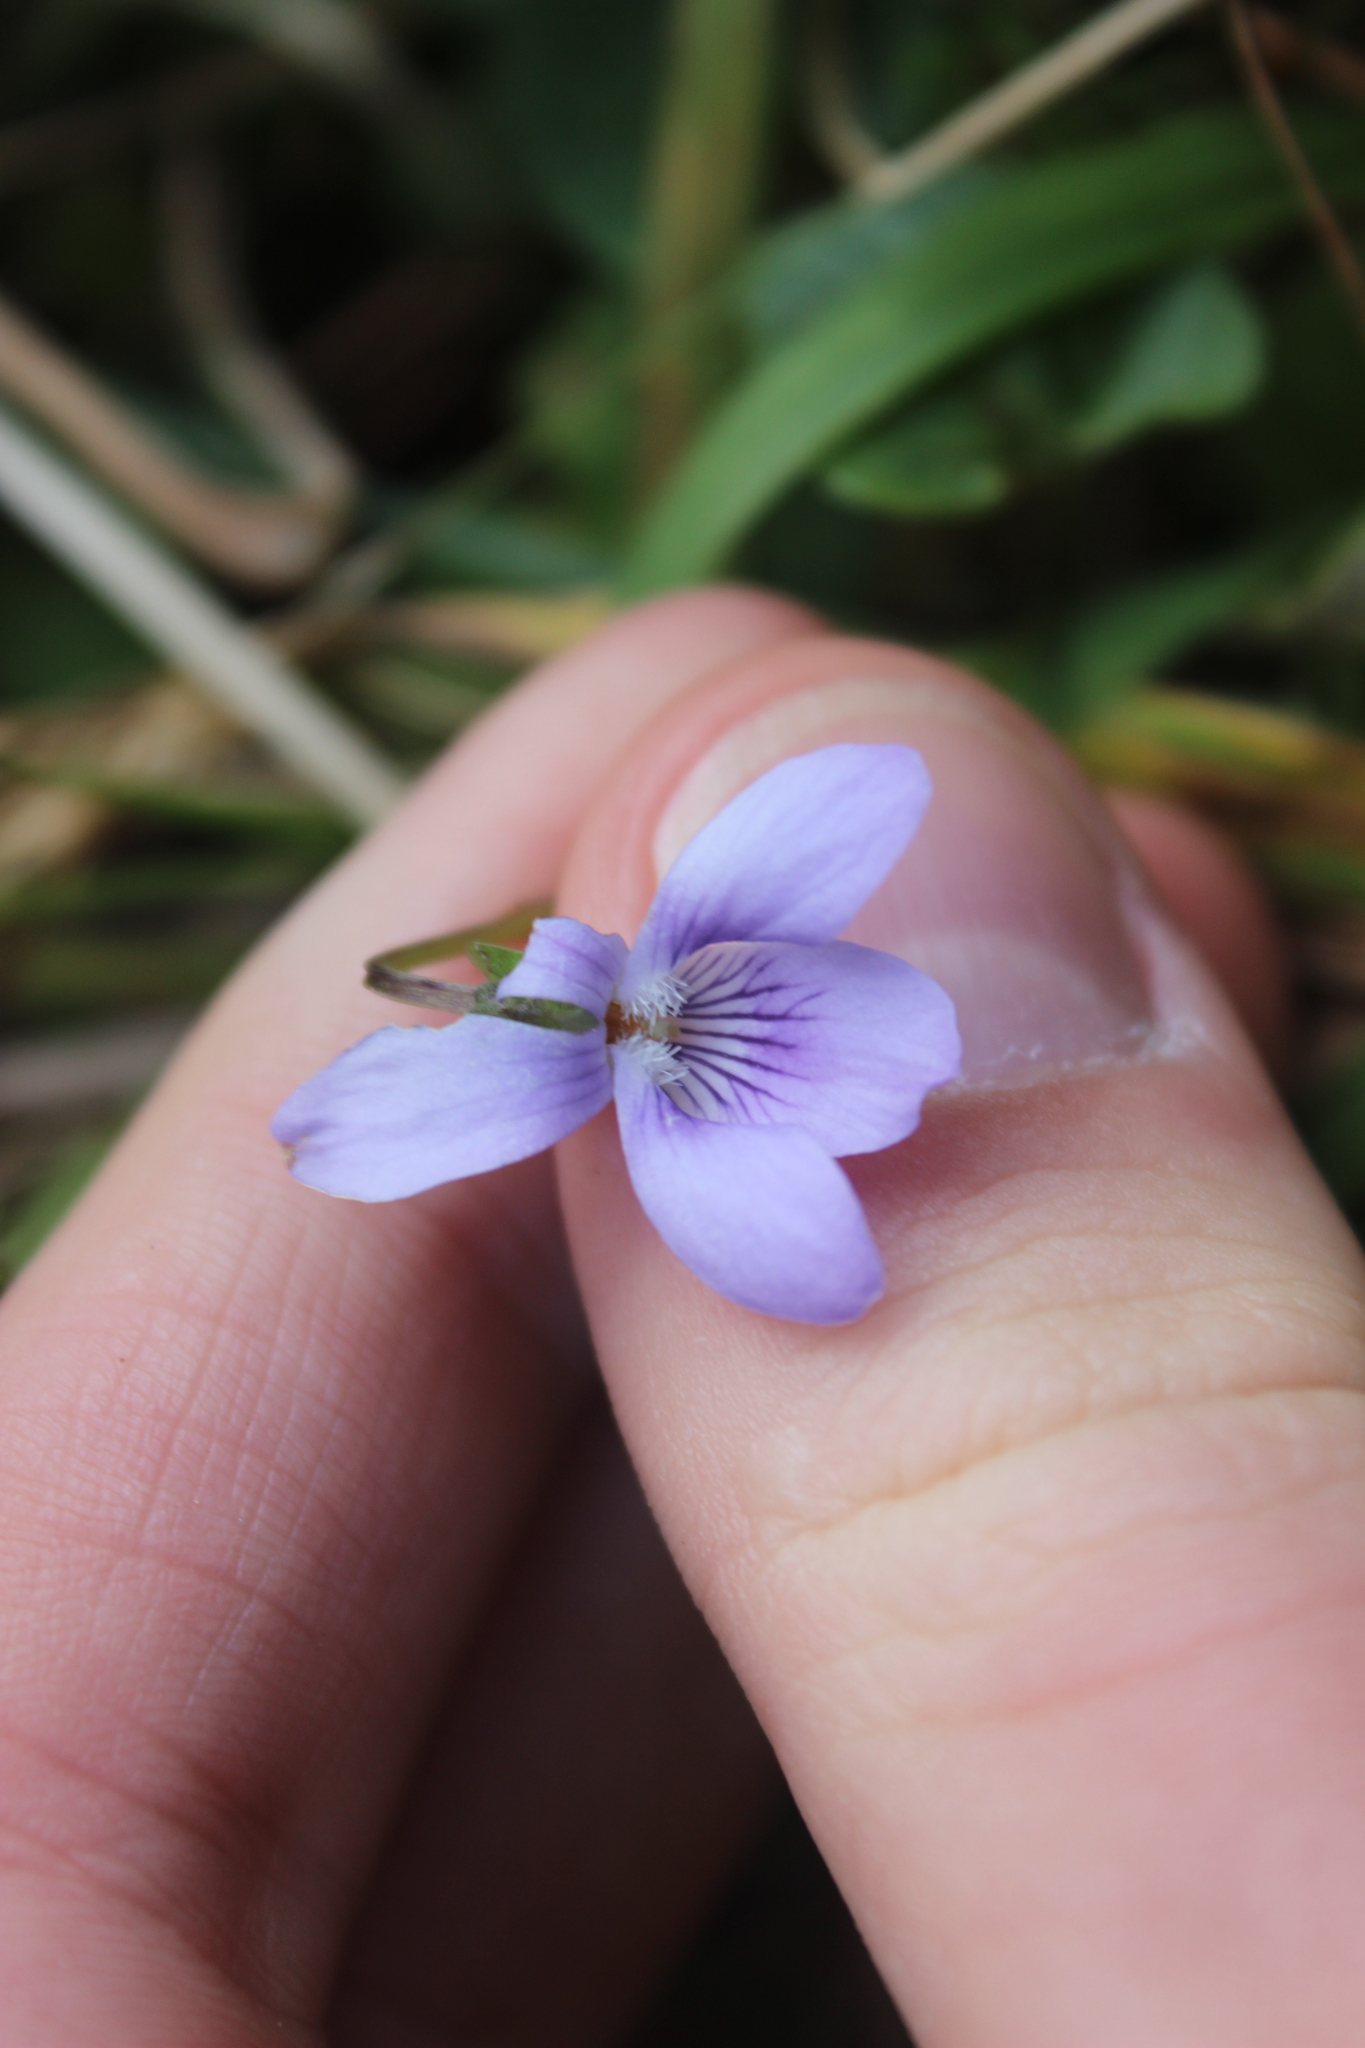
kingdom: Plantae
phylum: Tracheophyta
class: Magnoliopsida
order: Malpighiales
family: Violaceae
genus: Viola
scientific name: Viola riviniana
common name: Common dog-violet
